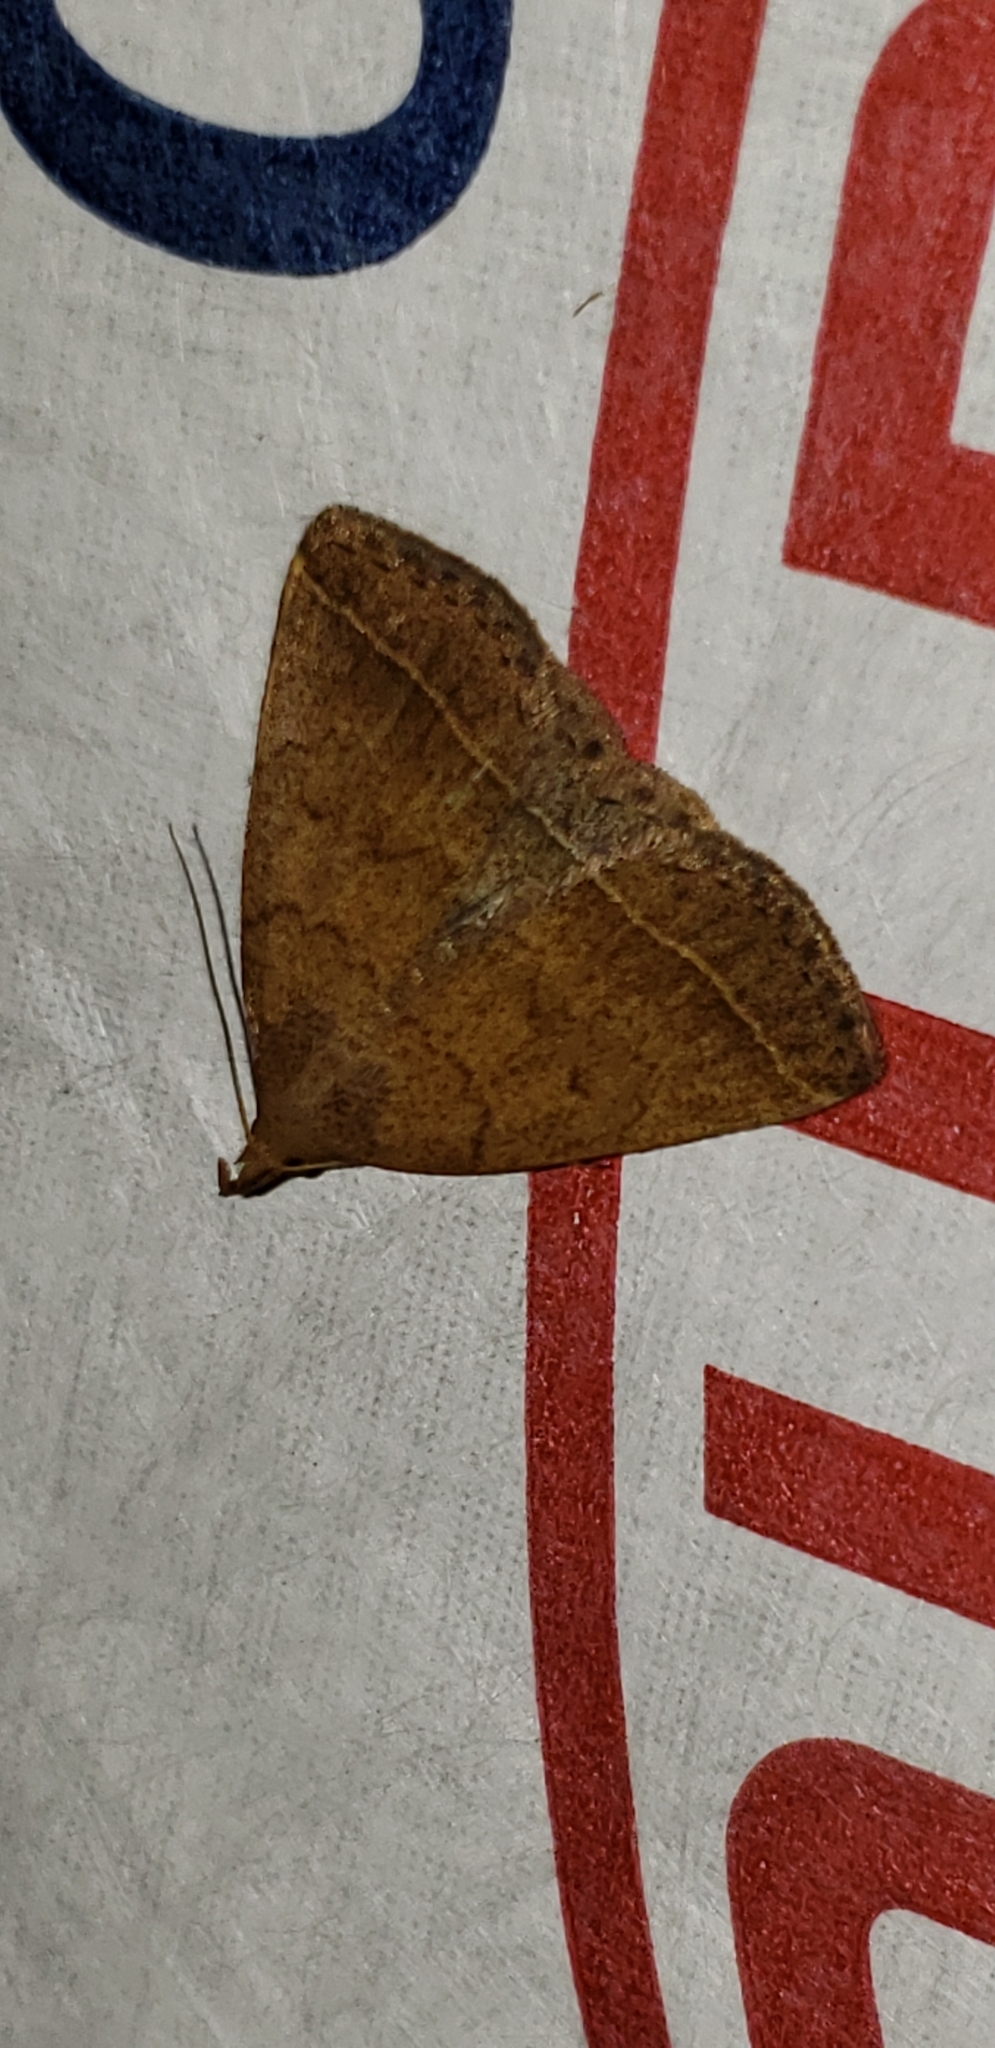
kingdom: Animalia
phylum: Arthropoda
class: Insecta
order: Lepidoptera
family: Erebidae
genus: Zanclognatha
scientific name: Zanclognatha jacchusalis
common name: Yellowish zanclognatha
